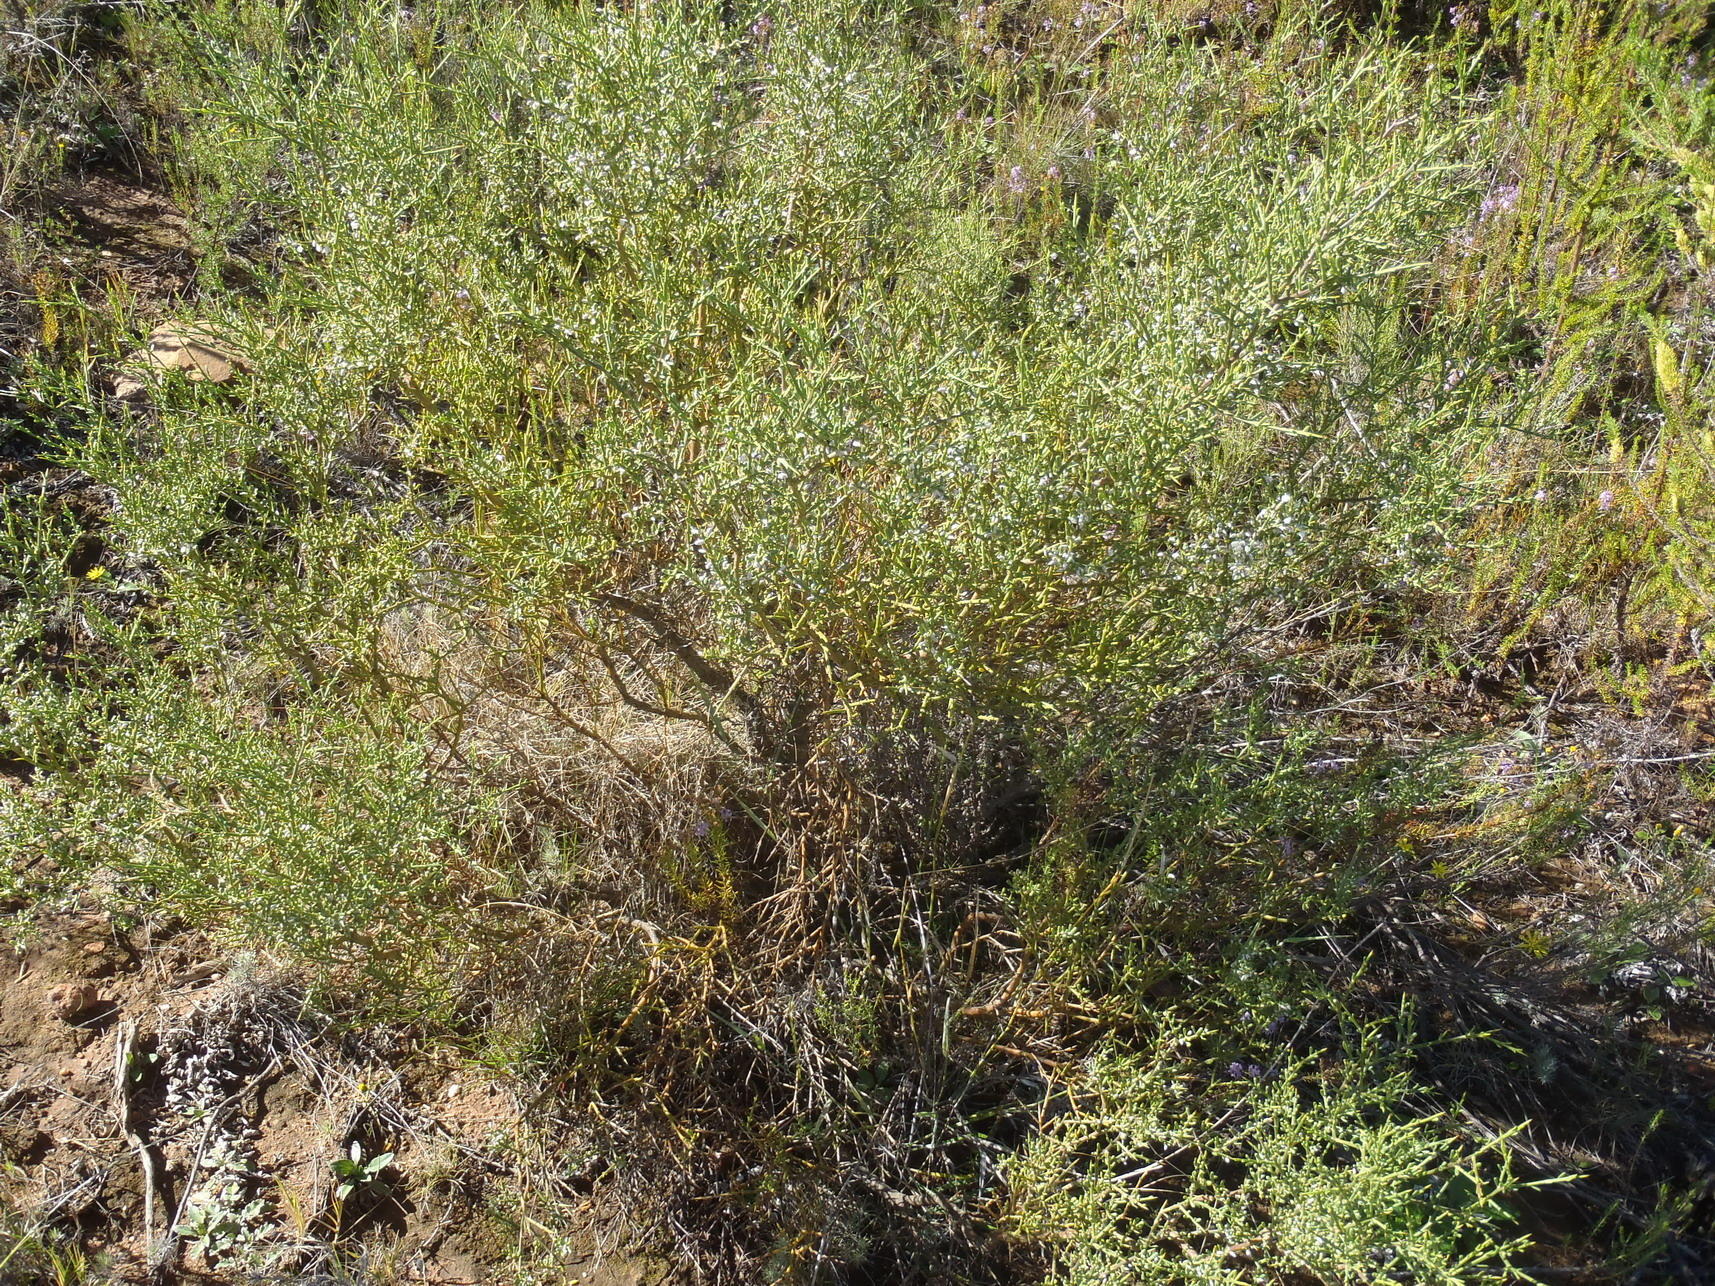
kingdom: Plantae
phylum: Tracheophyta
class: Magnoliopsida
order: Fabales
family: Polygalaceae
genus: Muraltia
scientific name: Muraltia spinosa
